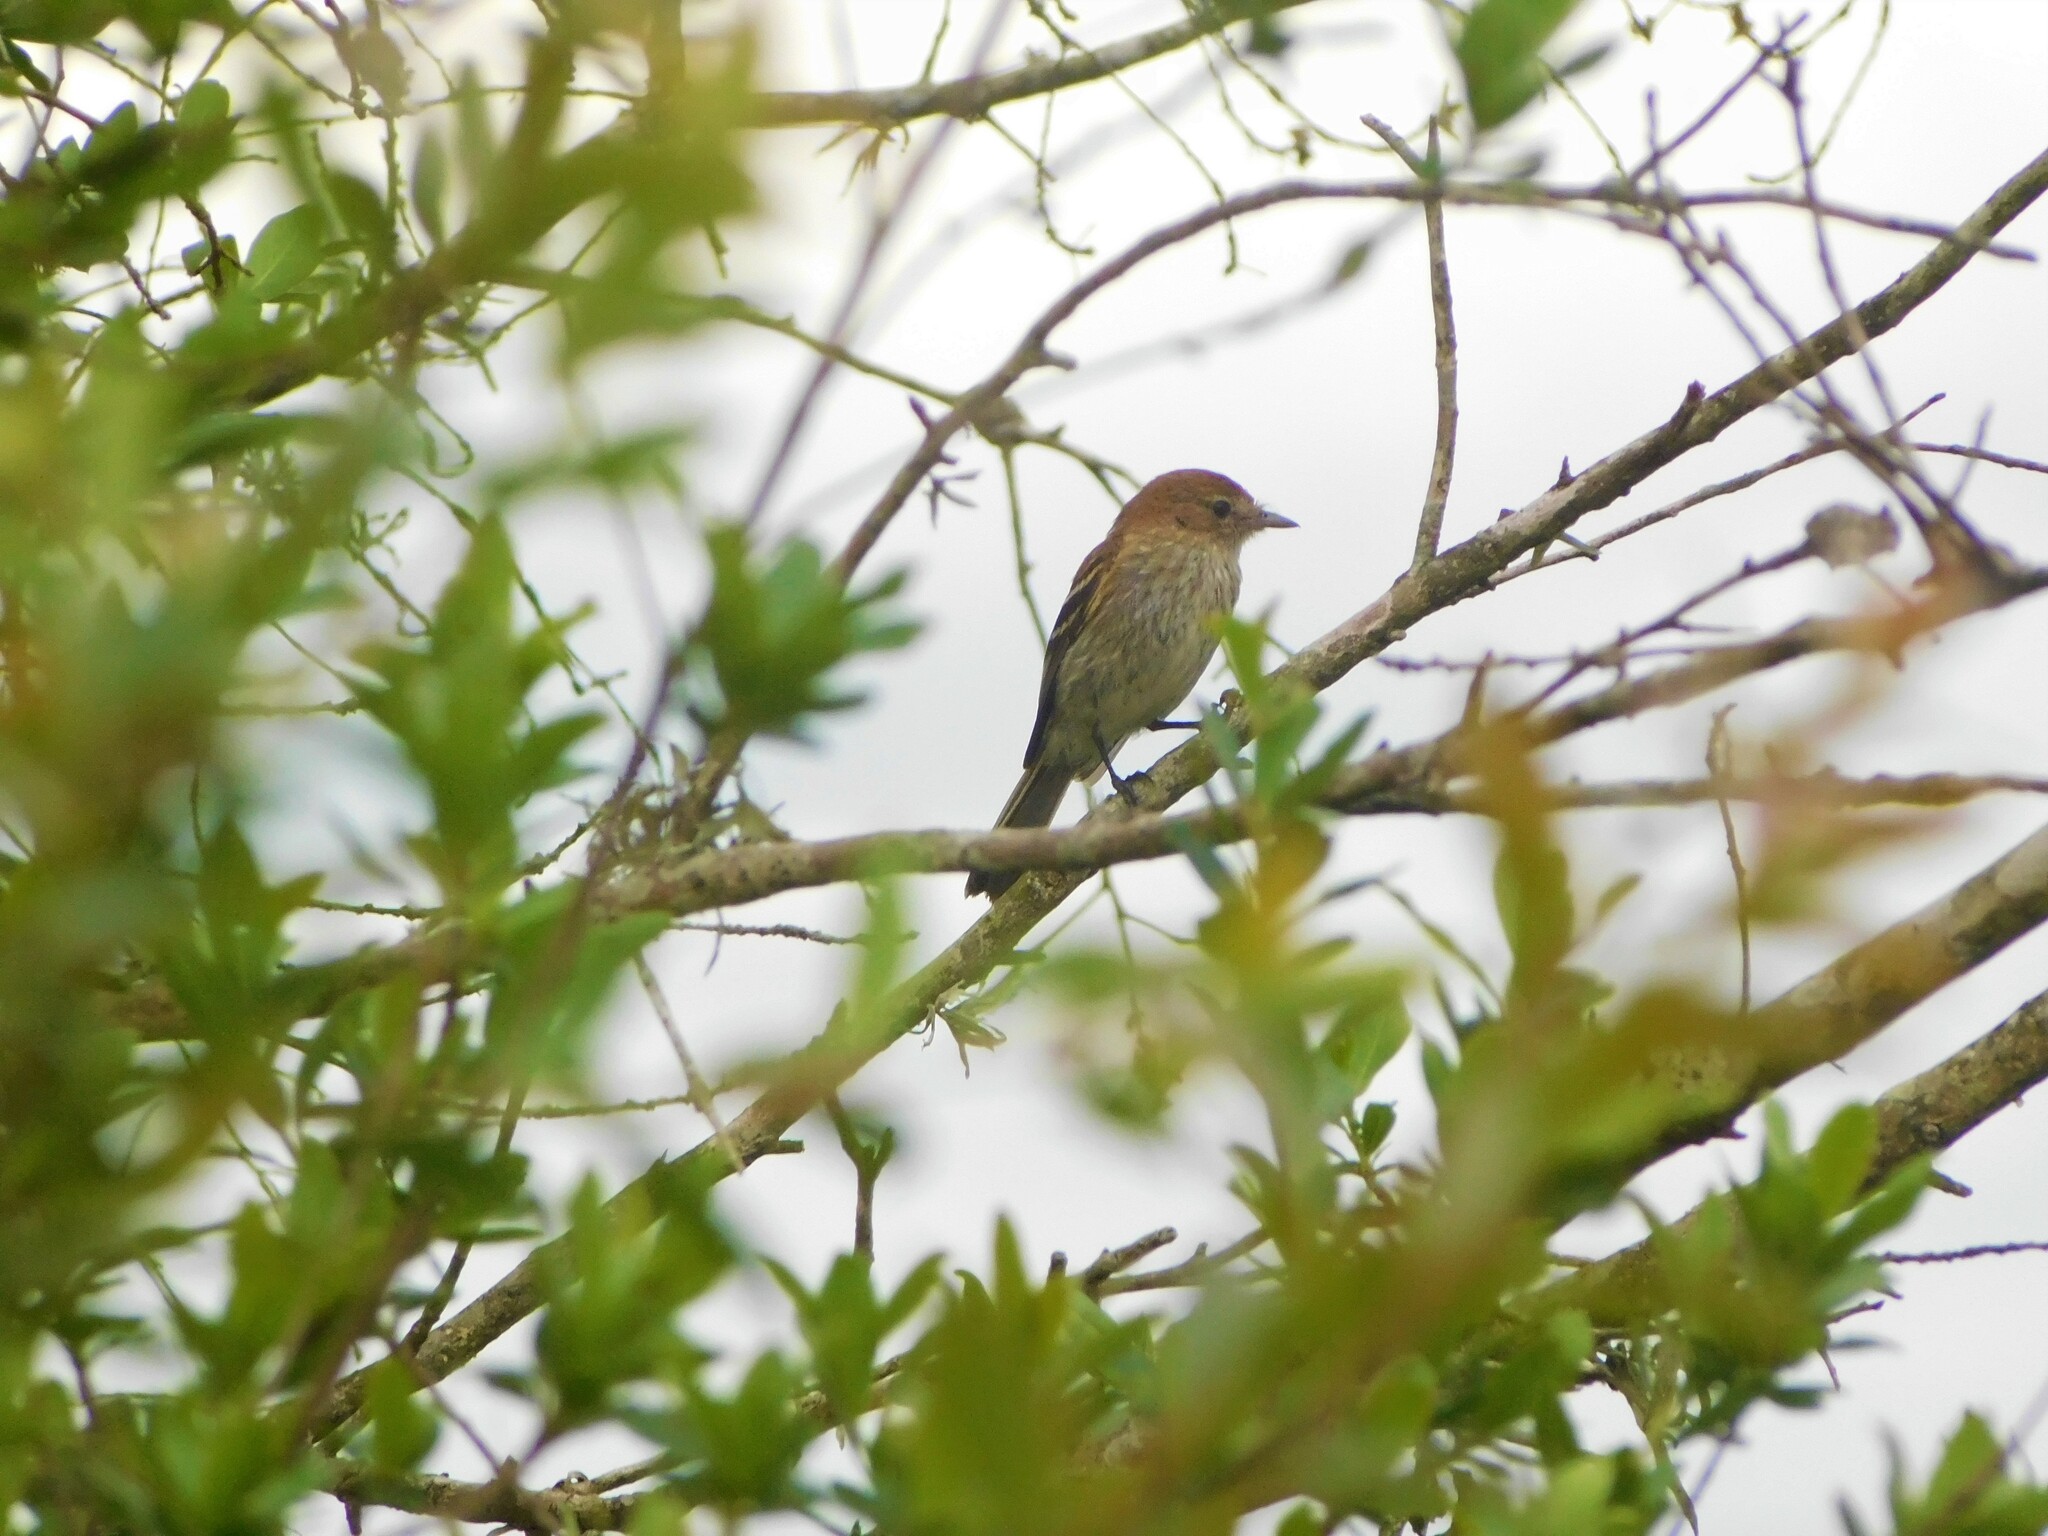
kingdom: Animalia
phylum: Chordata
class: Aves
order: Passeriformes
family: Tyrannidae
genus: Myiophobus
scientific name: Myiophobus fasciatus
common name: Bran-colored flycatcher
